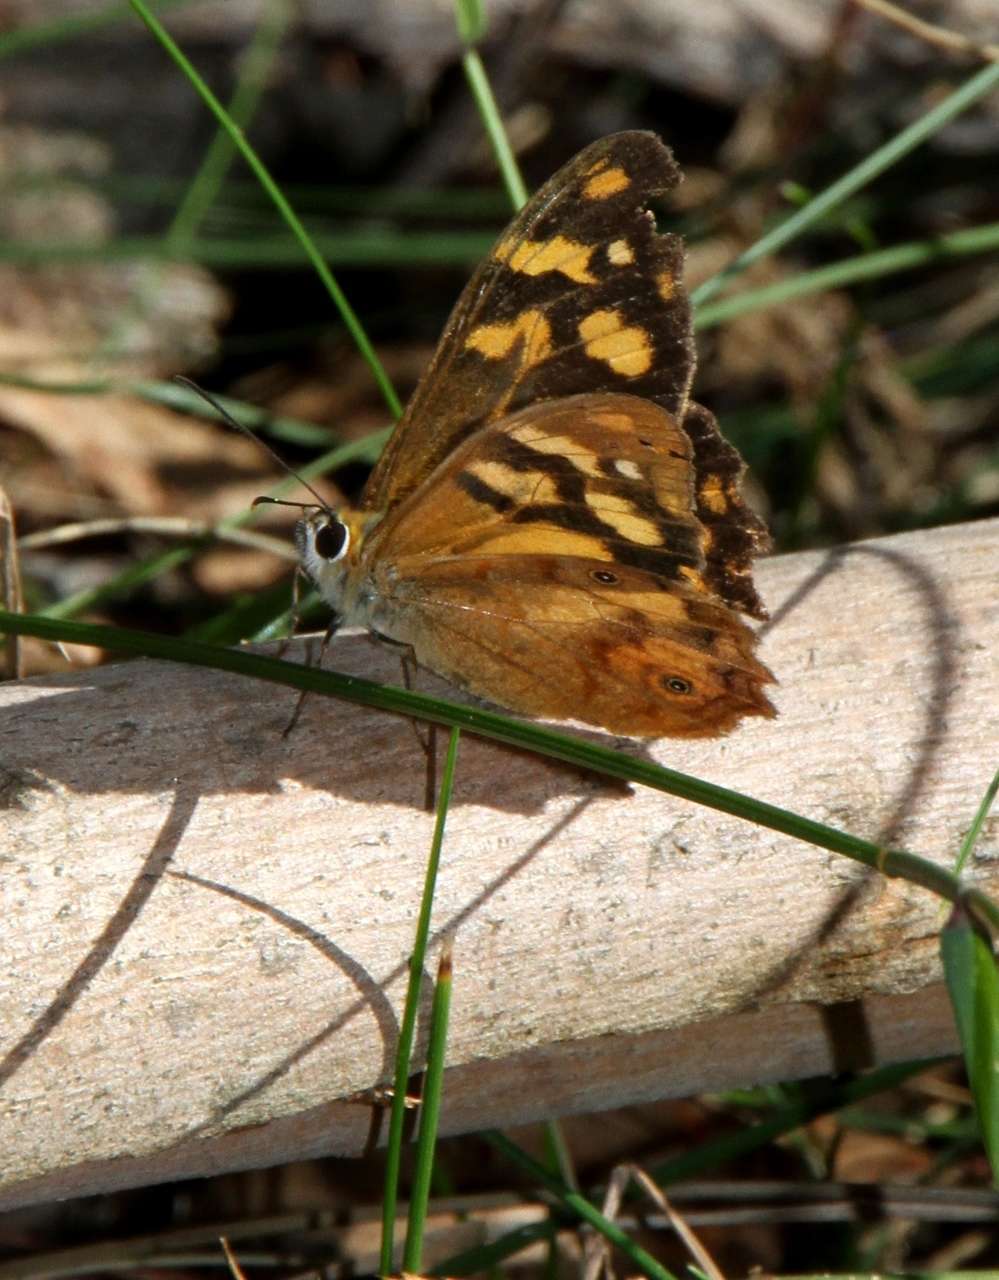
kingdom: Animalia
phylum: Arthropoda
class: Insecta
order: Lepidoptera
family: Nymphalidae
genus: Heteronympha
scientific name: Heteronympha banksii
